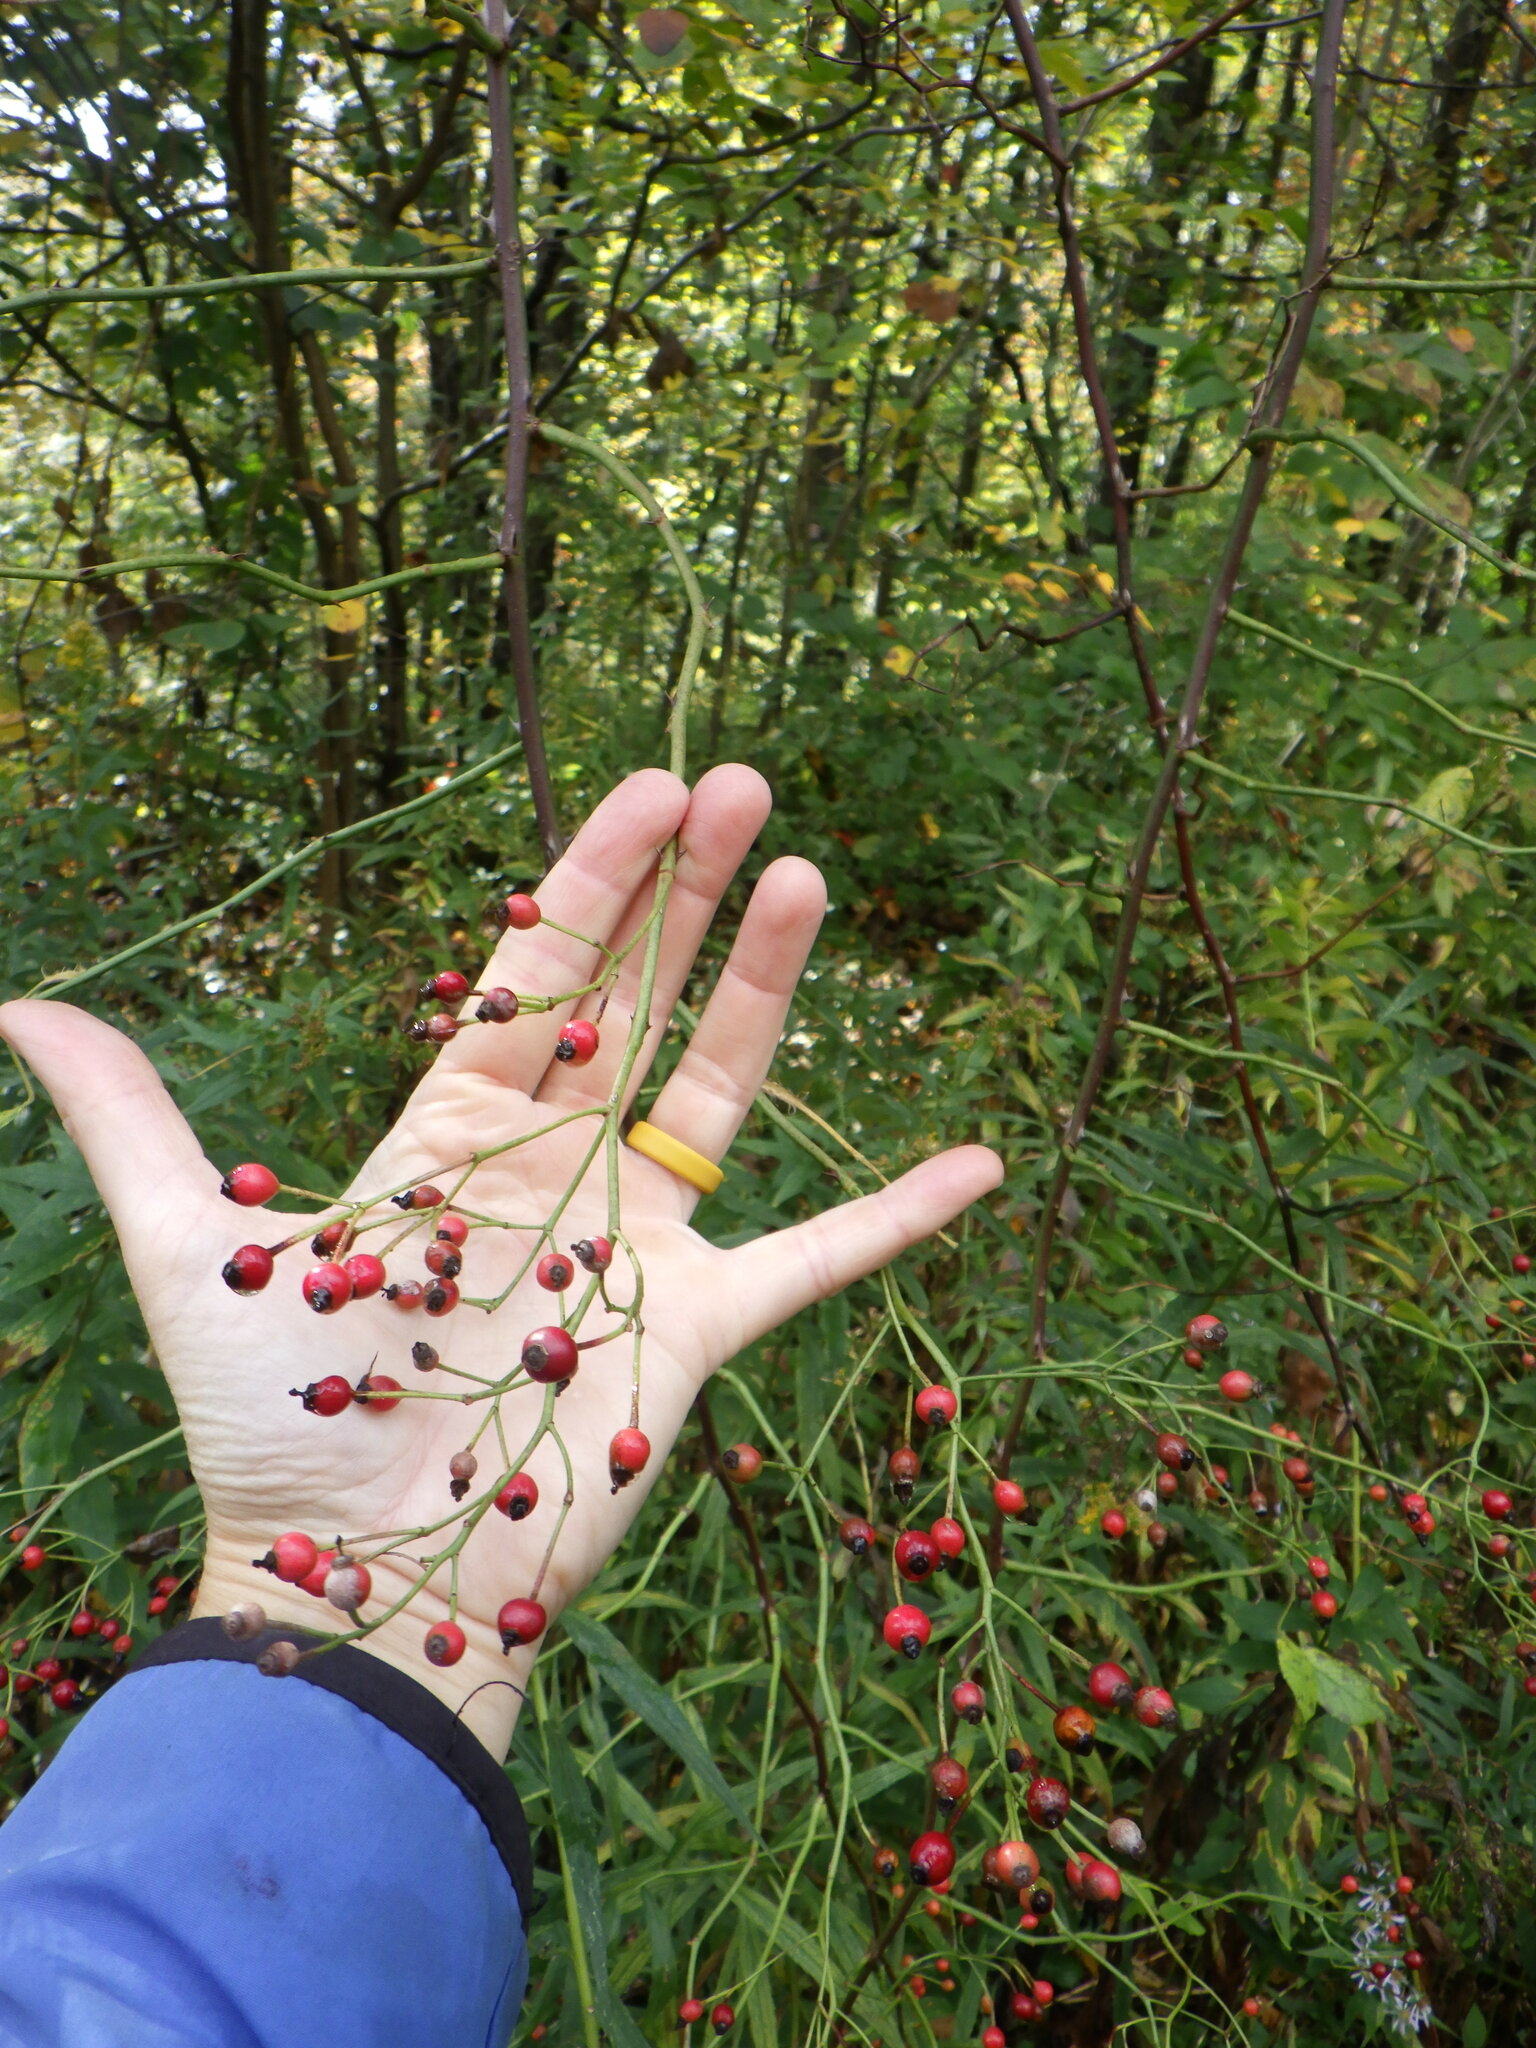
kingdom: Plantae
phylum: Tracheophyta
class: Magnoliopsida
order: Rosales
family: Rosaceae
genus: Rosa
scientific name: Rosa multiflora
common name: Multiflora rose
